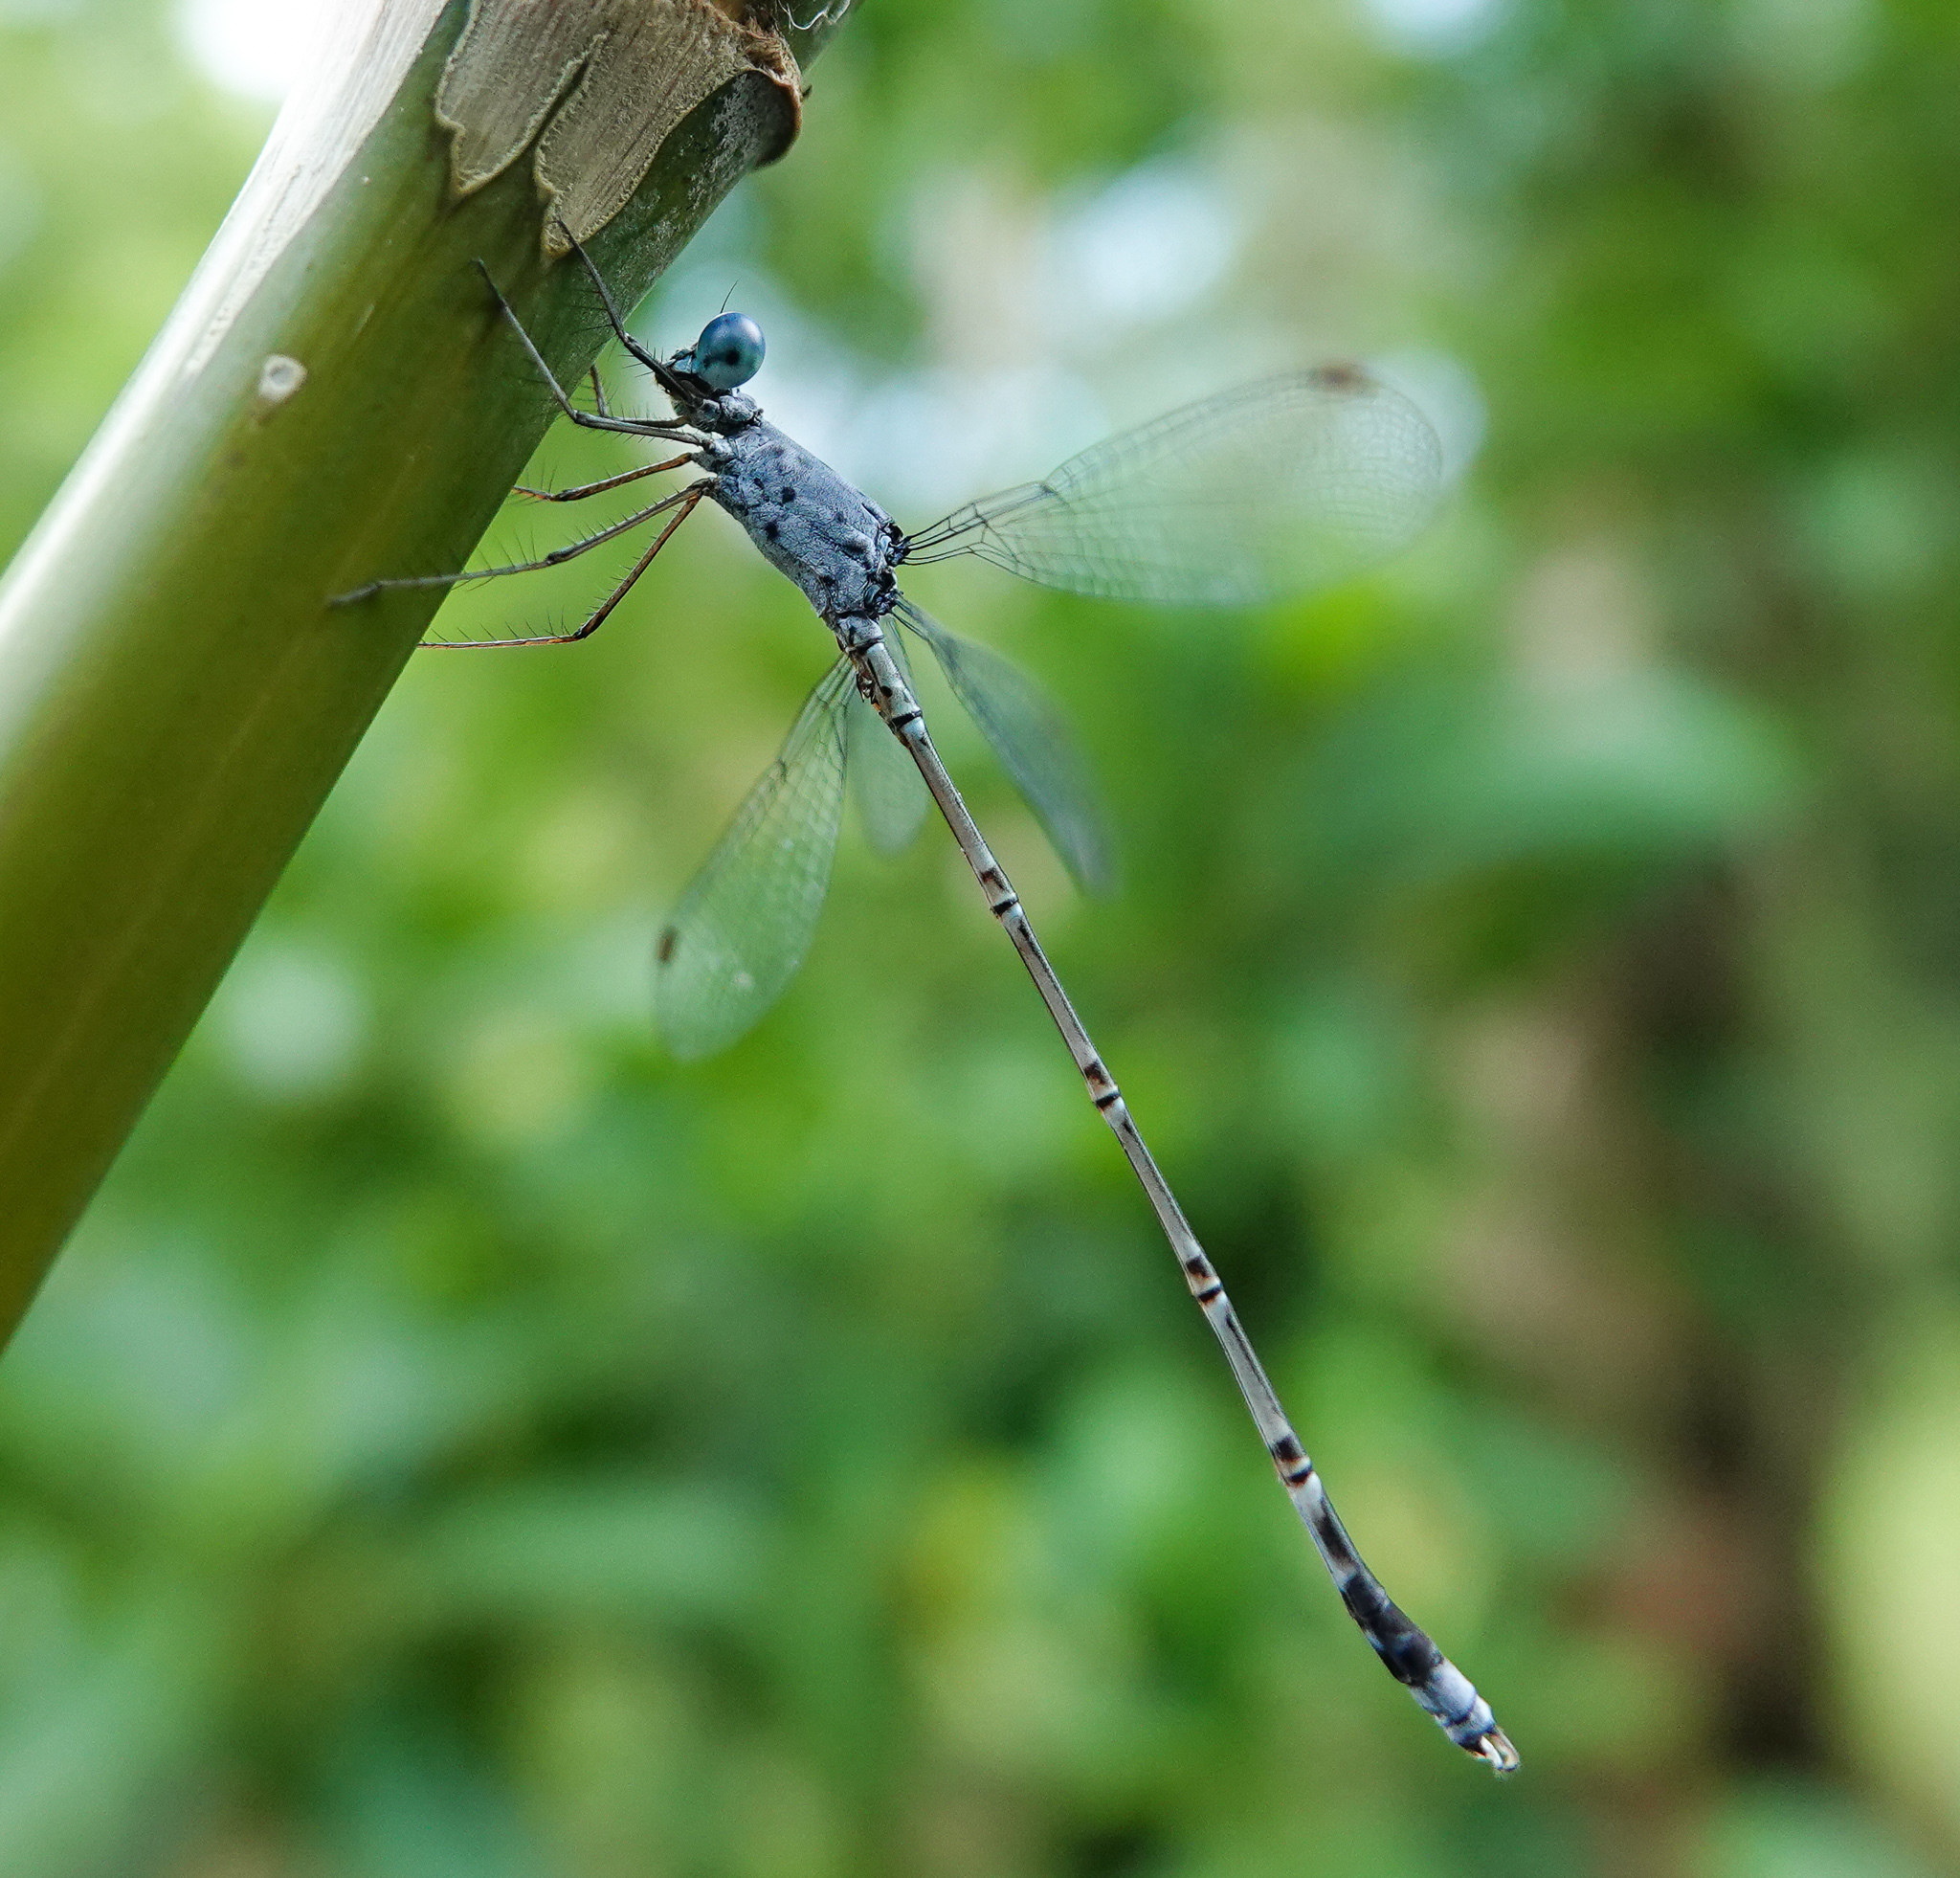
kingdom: Animalia
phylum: Arthropoda
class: Insecta
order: Odonata
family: Lestidae
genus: Lestes
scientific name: Lestes praemorsus
